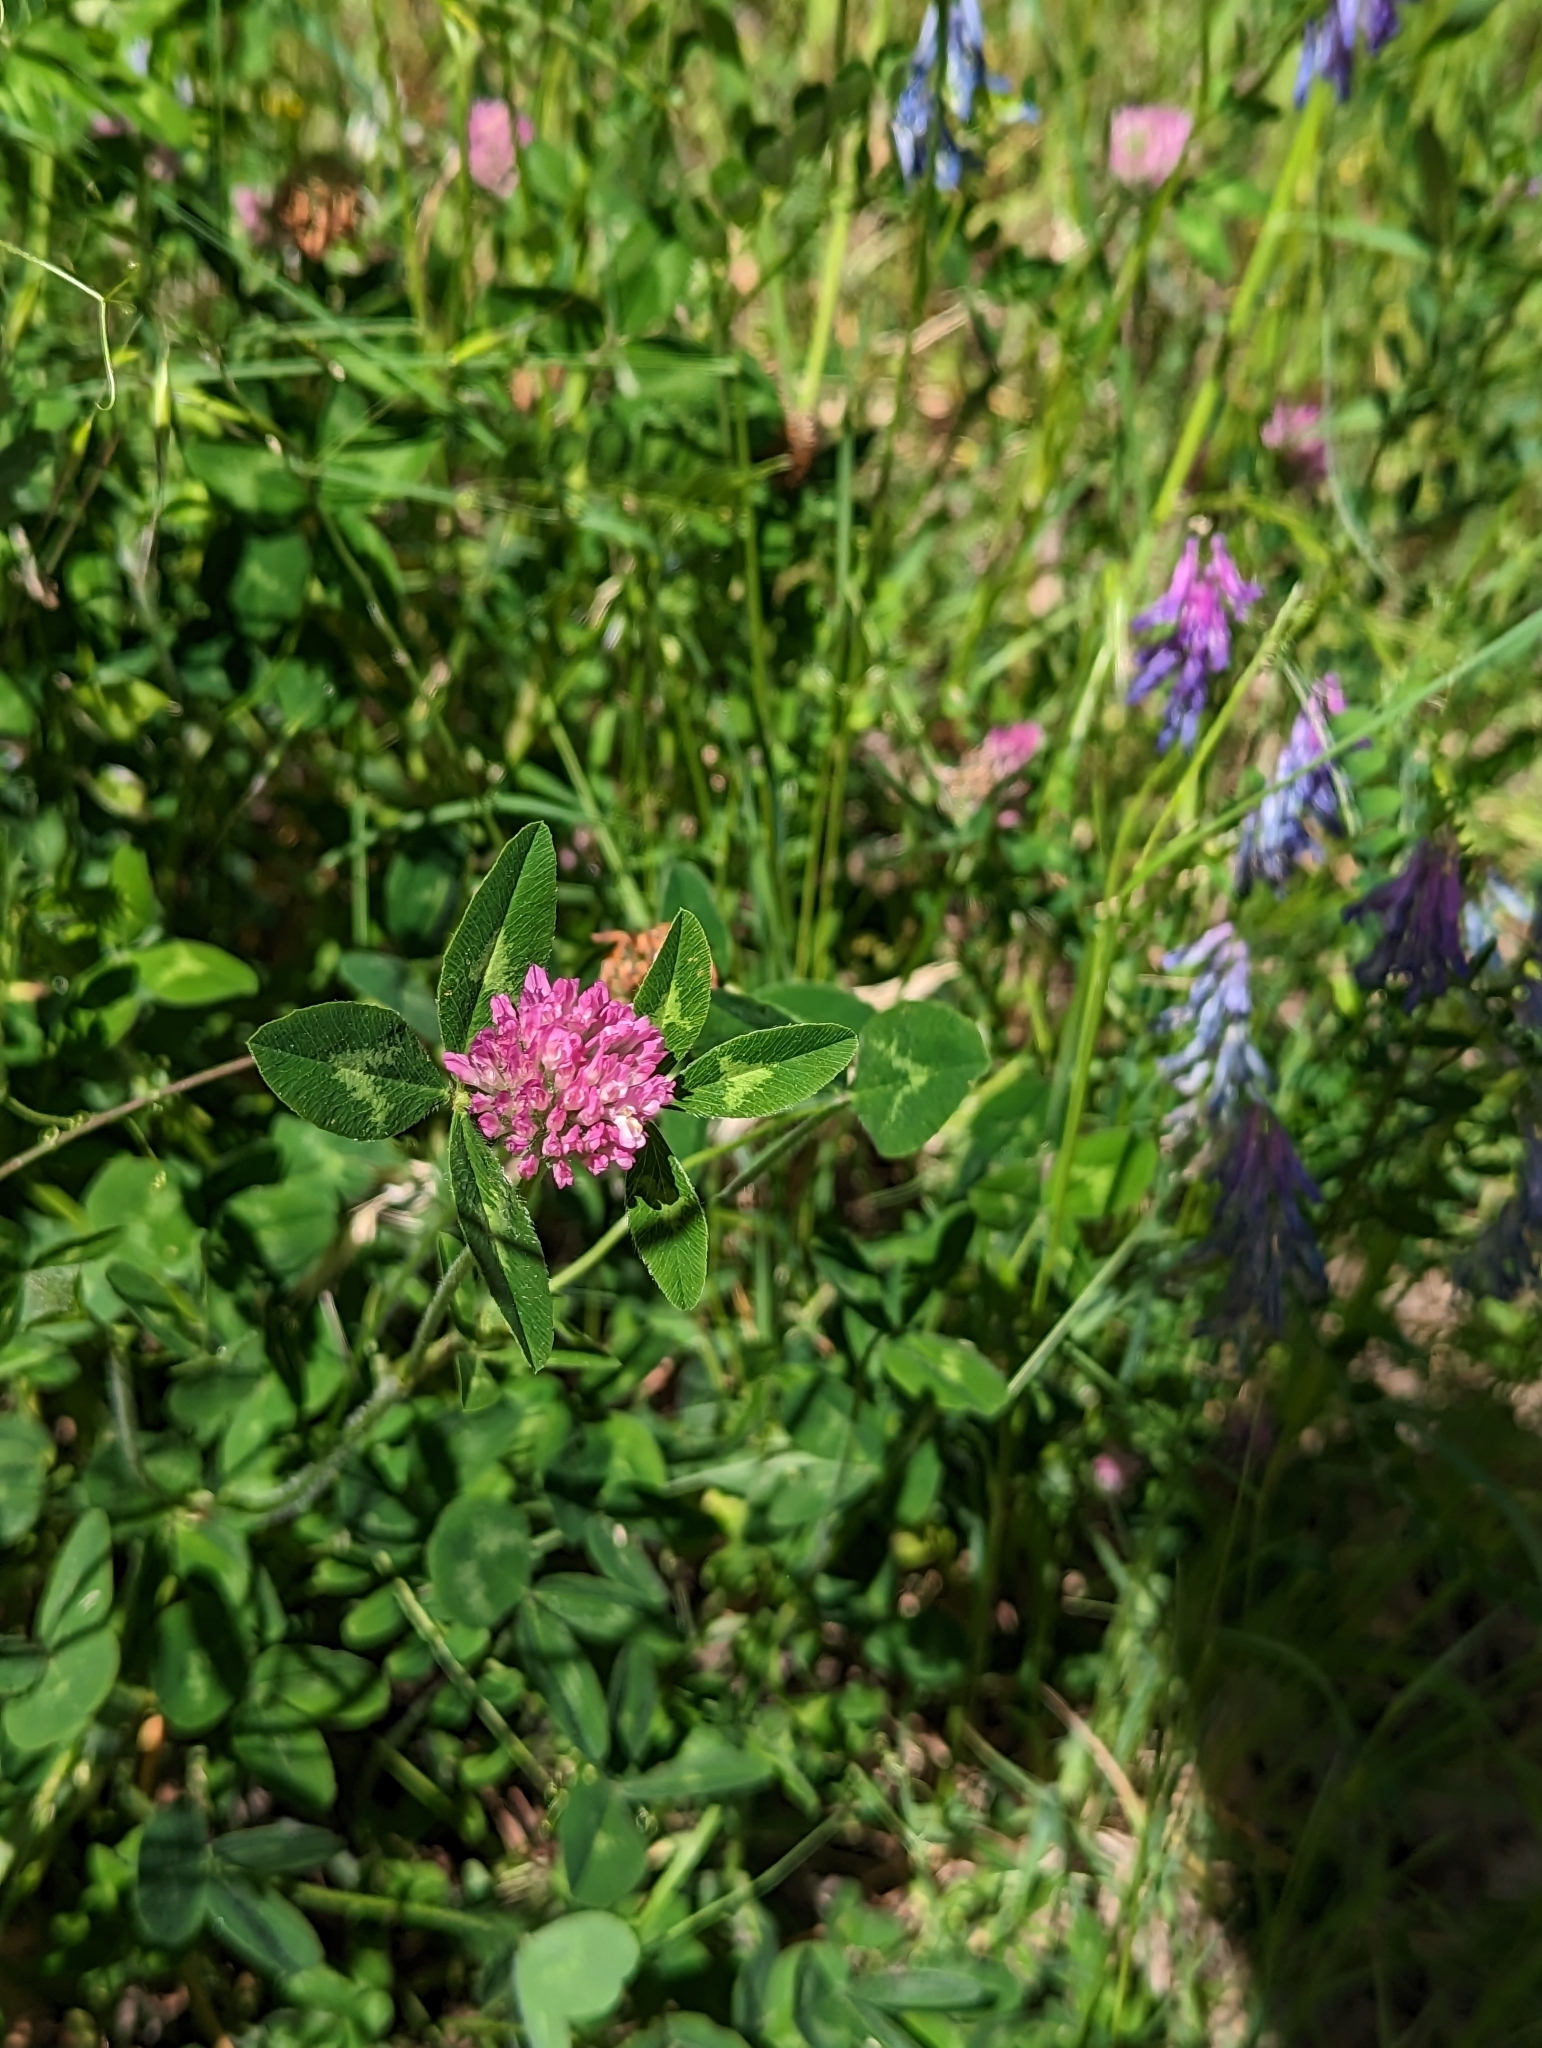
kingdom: Plantae
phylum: Tracheophyta
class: Magnoliopsida
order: Fabales
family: Fabaceae
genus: Trifolium
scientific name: Trifolium pratense
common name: Red clover
